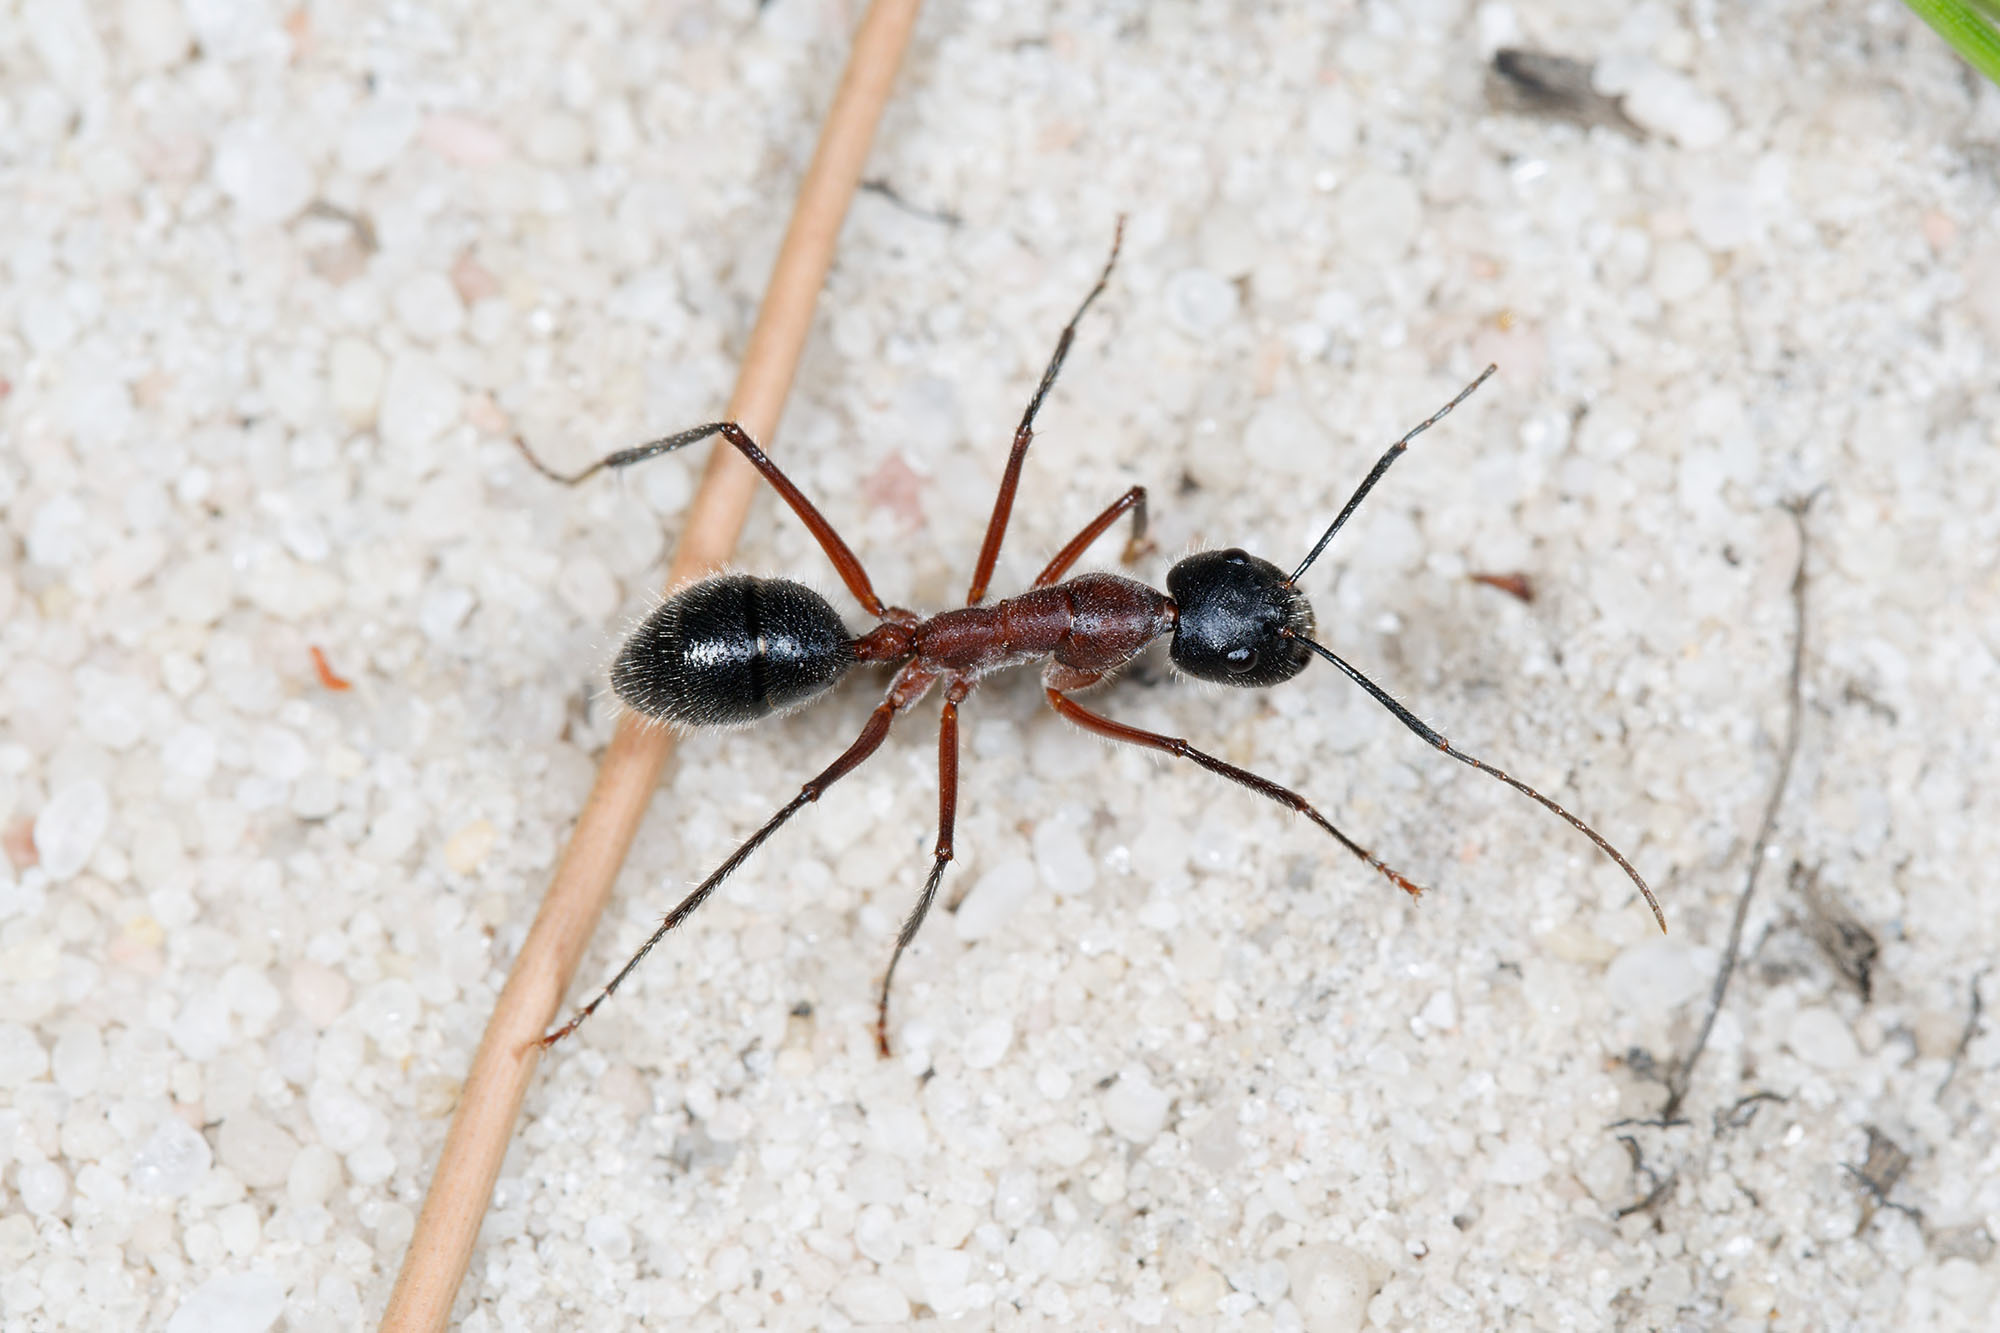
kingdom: Animalia
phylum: Arthropoda
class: Insecta
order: Hymenoptera
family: Formicidae
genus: Camponotus
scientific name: Camponotus intrepidus
